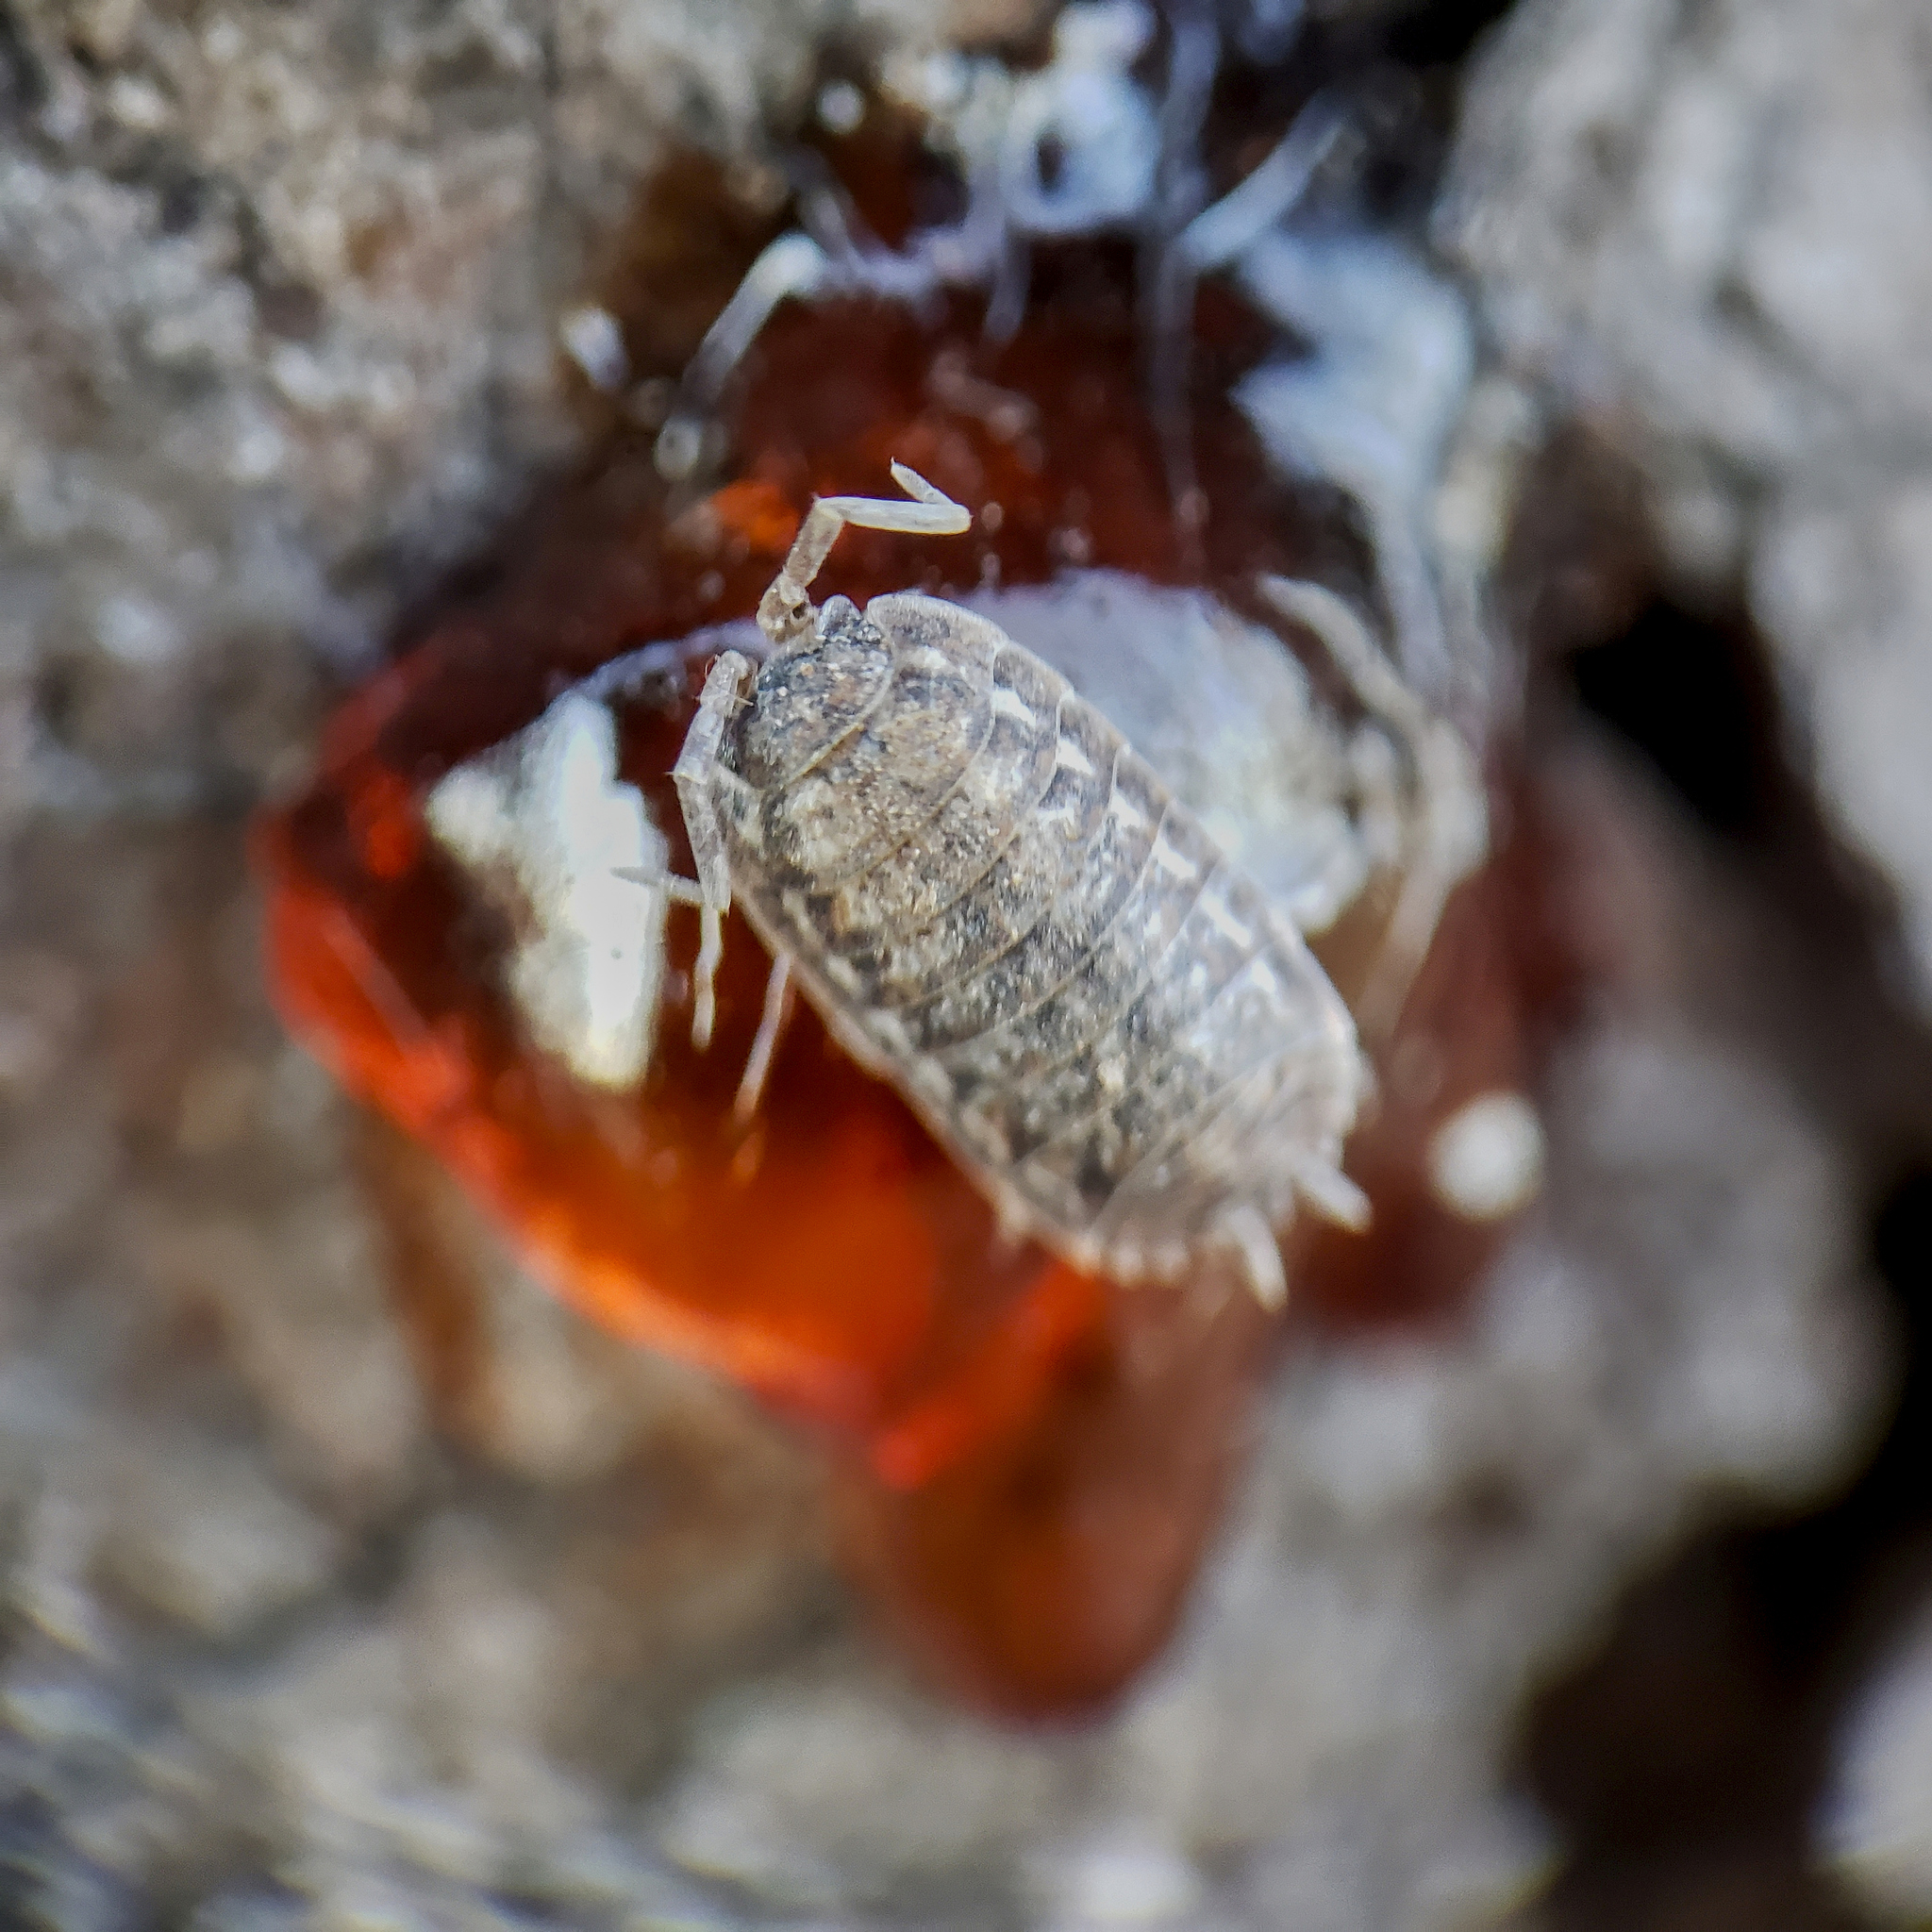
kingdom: Animalia
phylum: Arthropoda
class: Malacostraca
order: Isopoda
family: Trachelipodidae
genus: Trachelipus
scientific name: Trachelipus rathkii
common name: Isopod
